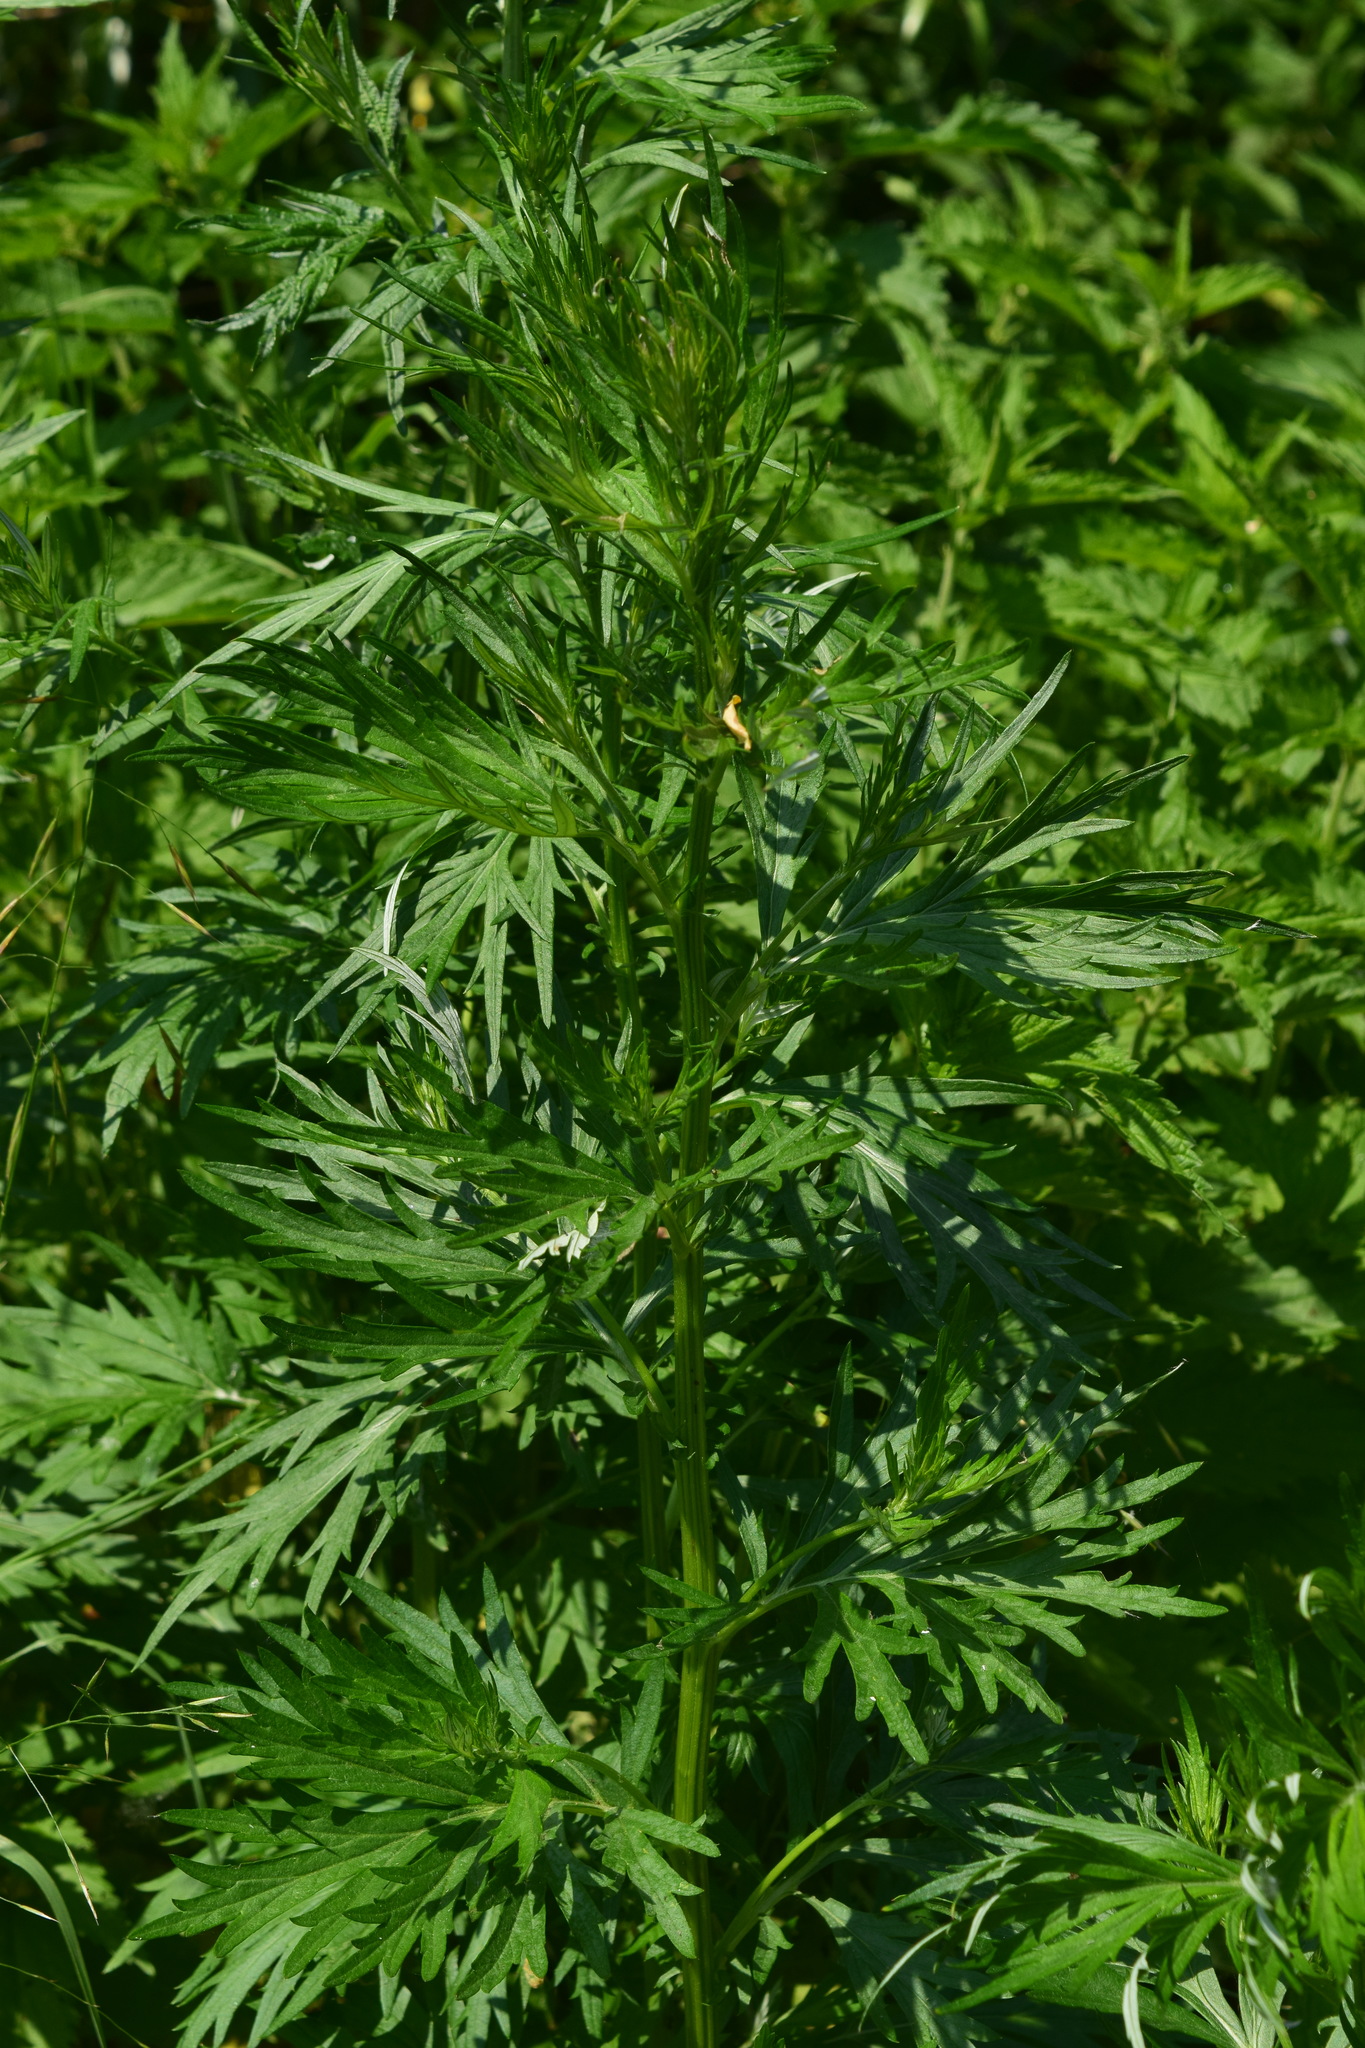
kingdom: Plantae
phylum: Tracheophyta
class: Magnoliopsida
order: Asterales
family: Asteraceae
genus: Artemisia
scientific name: Artemisia vulgaris
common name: Mugwort
